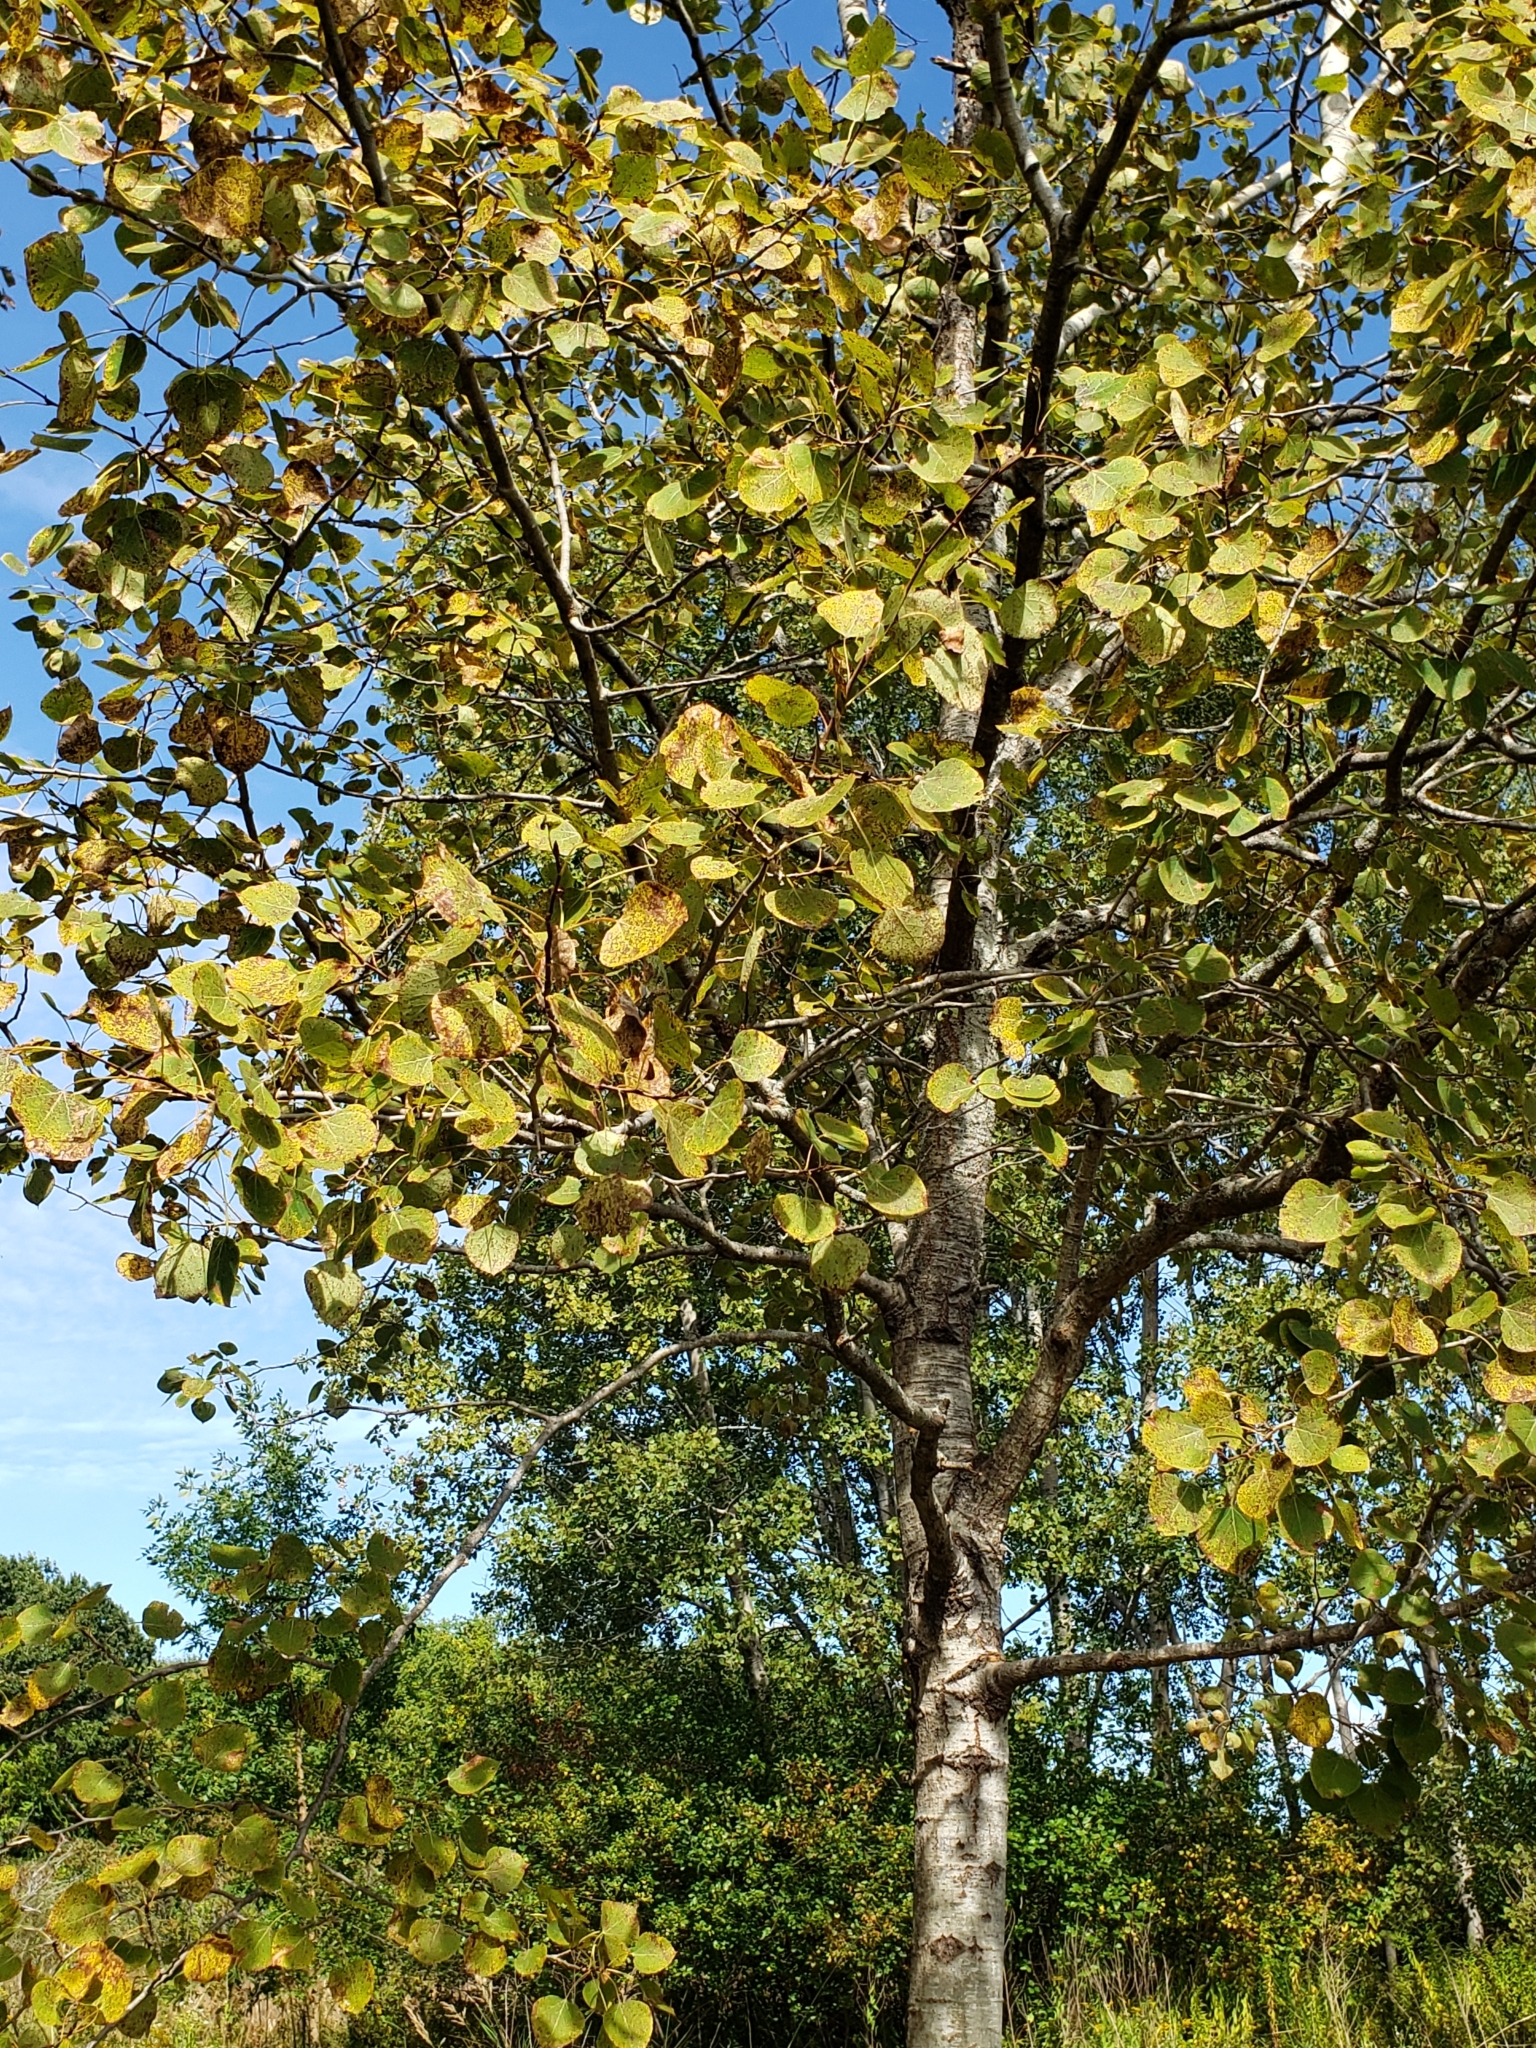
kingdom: Plantae
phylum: Tracheophyta
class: Magnoliopsida
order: Malpighiales
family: Salicaceae
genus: Populus
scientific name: Populus tremuloides
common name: Quaking aspen
